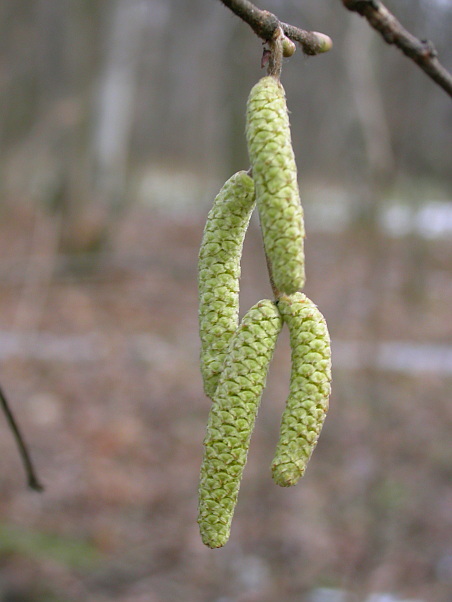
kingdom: Plantae
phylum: Tracheophyta
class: Magnoliopsida
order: Fagales
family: Betulaceae
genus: Corylus
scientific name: Corylus avellana
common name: European hazel
